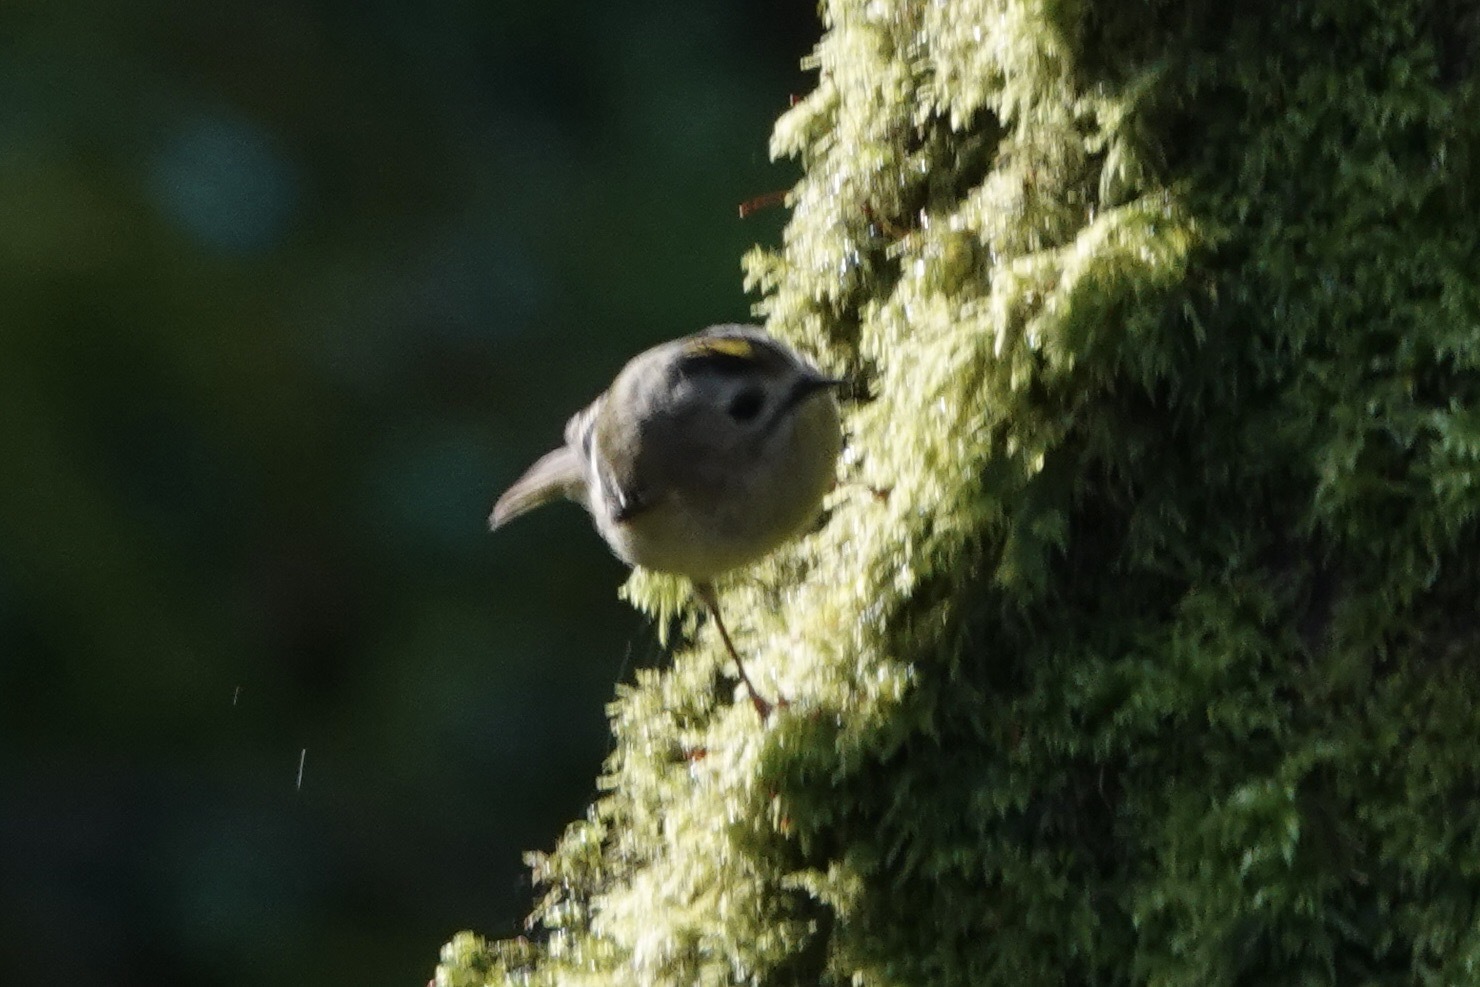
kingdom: Animalia
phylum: Chordata
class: Aves
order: Passeriformes
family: Regulidae
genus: Regulus
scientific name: Regulus regulus
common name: Goldcrest
